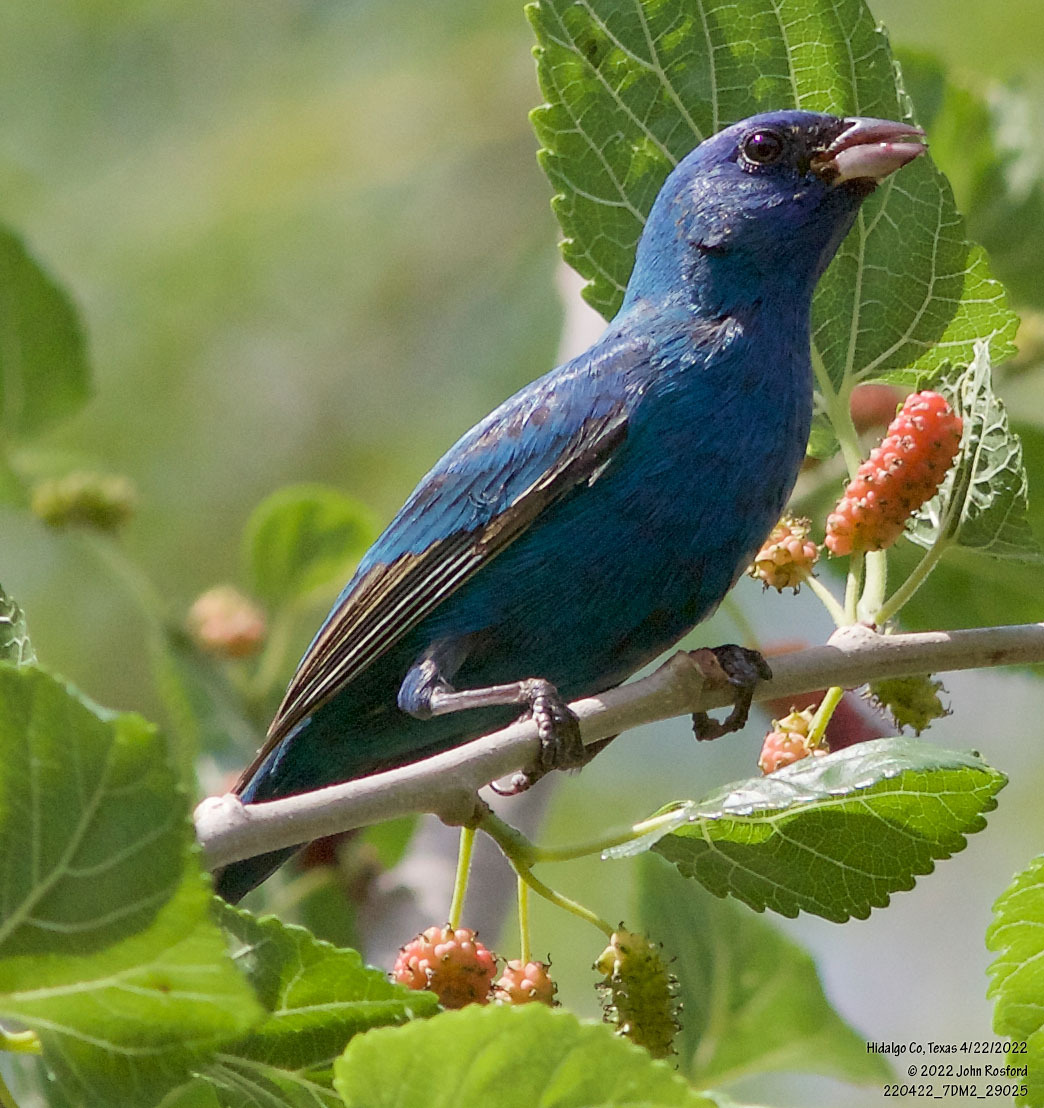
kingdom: Animalia
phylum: Chordata
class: Aves
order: Passeriformes
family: Cardinalidae
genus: Passerina
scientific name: Passerina cyanea
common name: Indigo bunting
